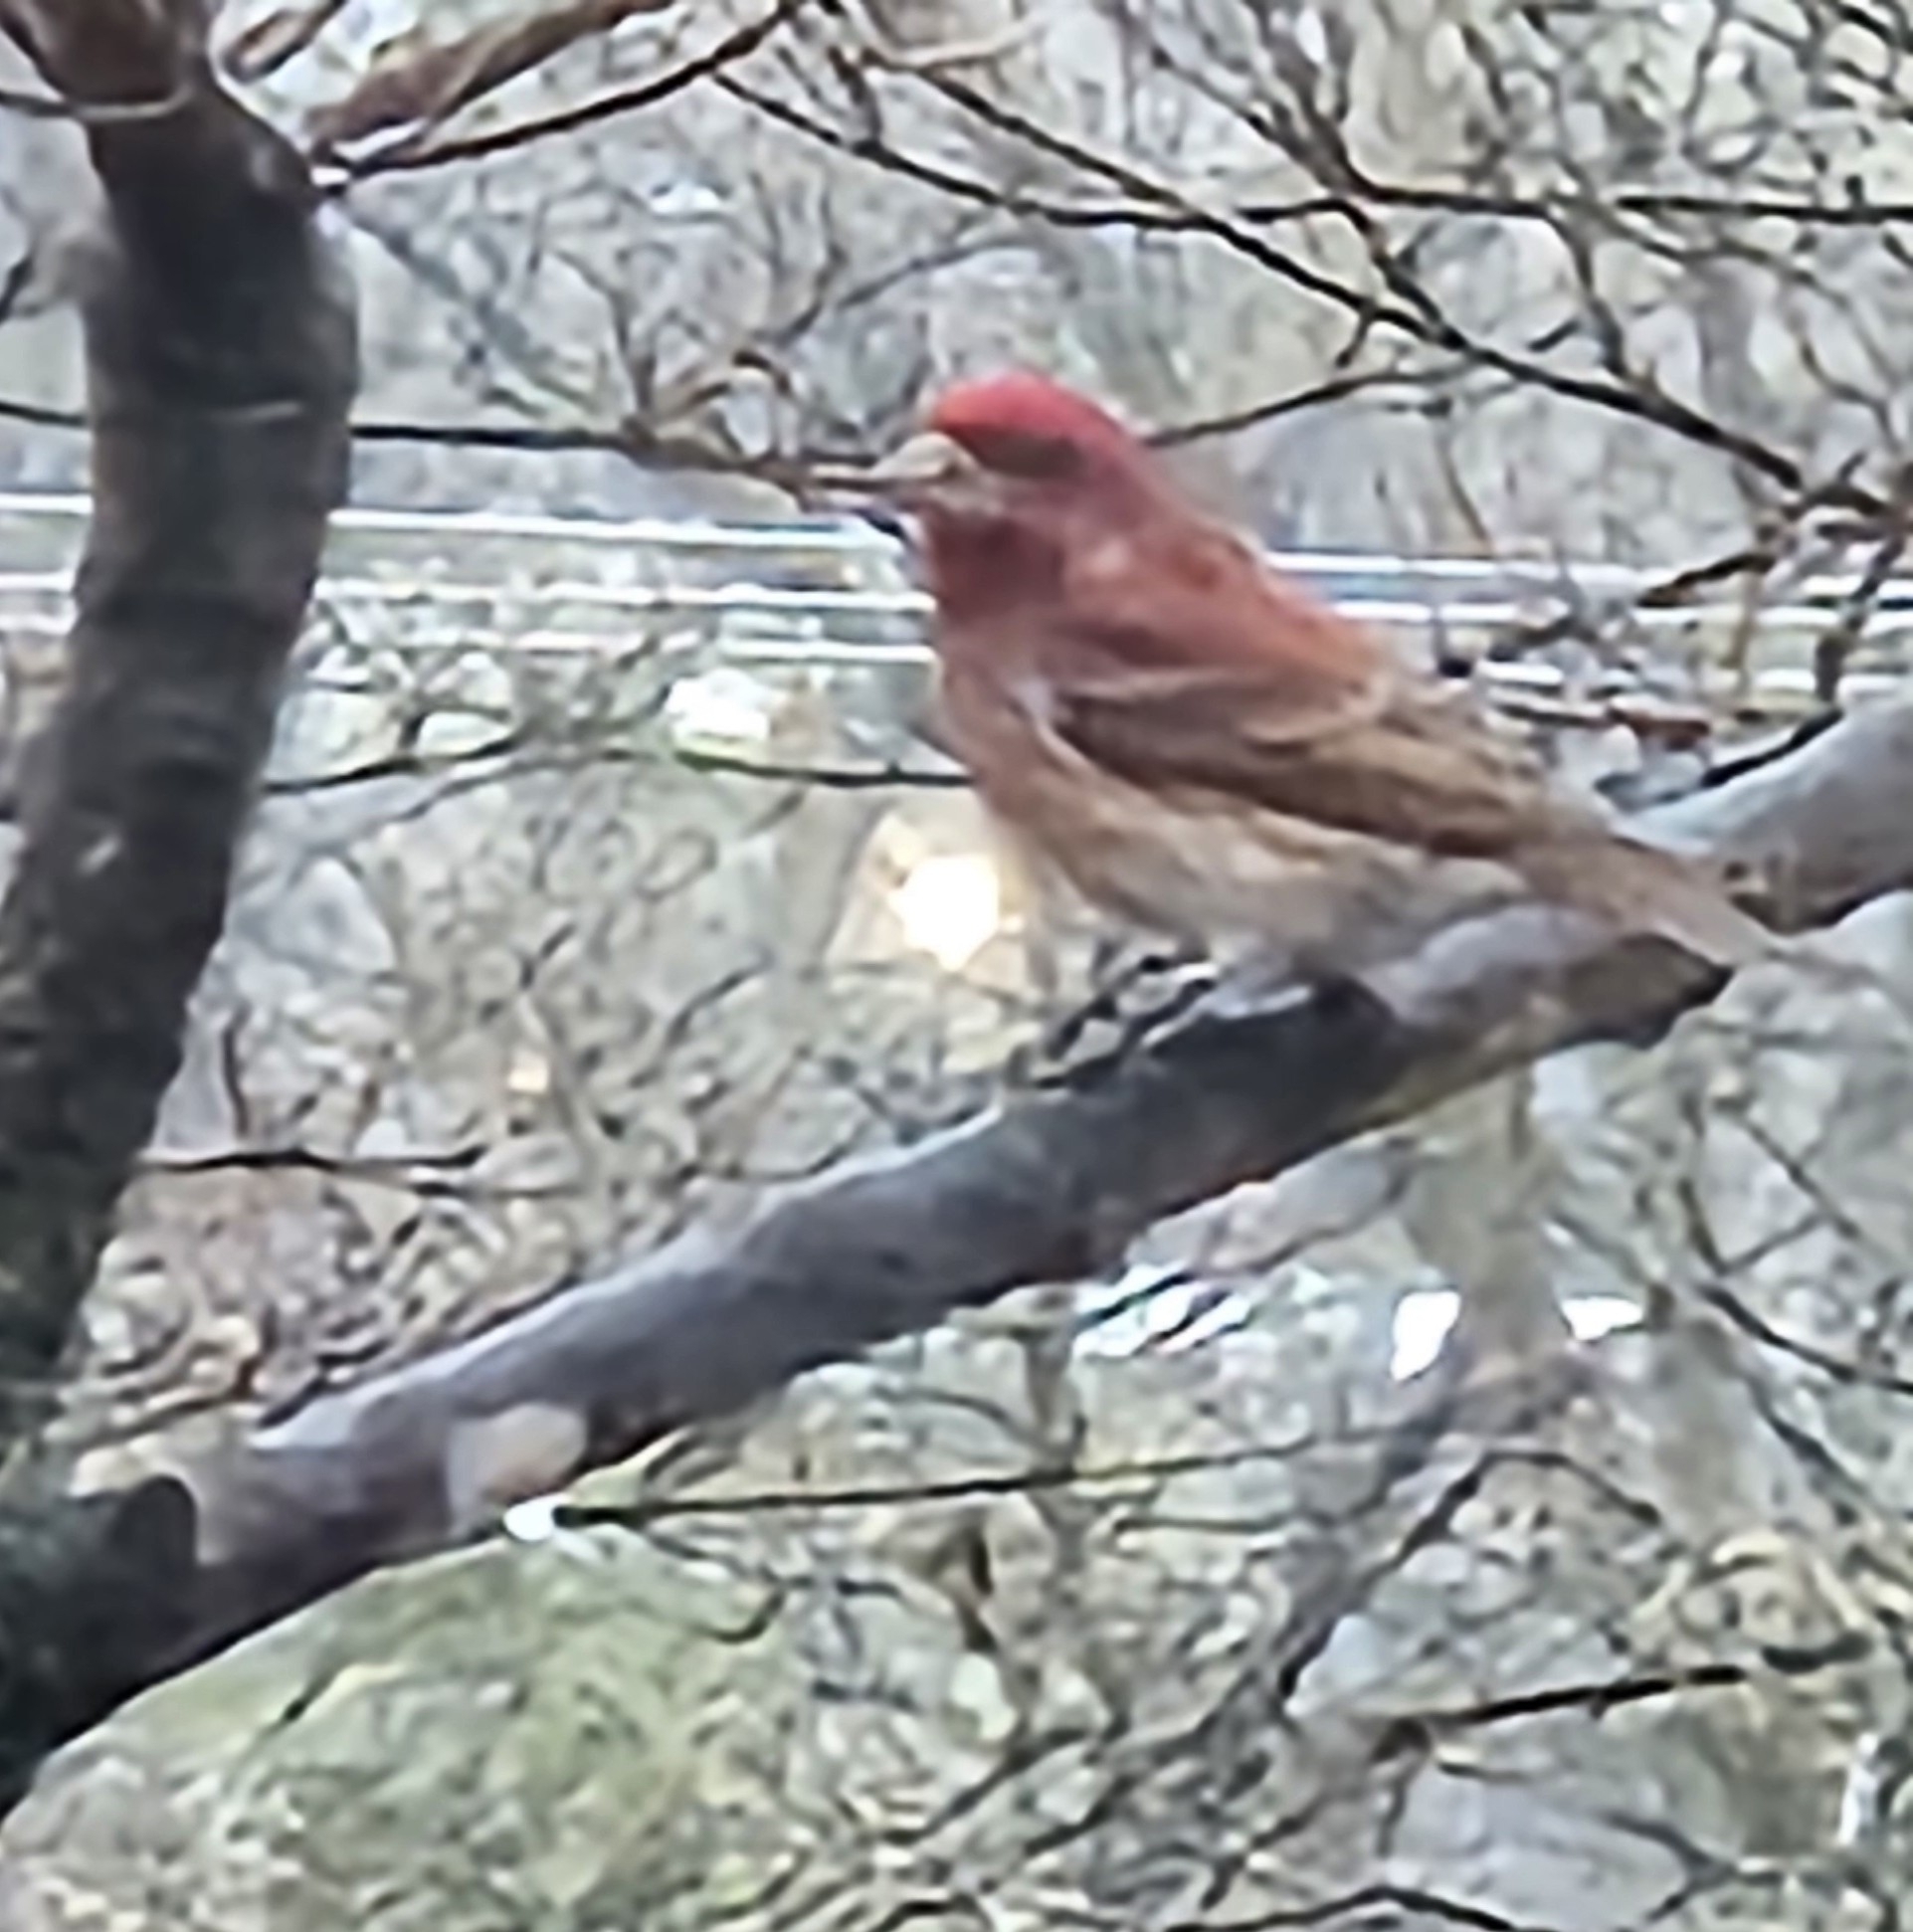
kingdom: Animalia
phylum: Chordata
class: Aves
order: Passeriformes
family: Fringillidae
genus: Haemorhous
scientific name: Haemorhous purpureus
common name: Purple finch
